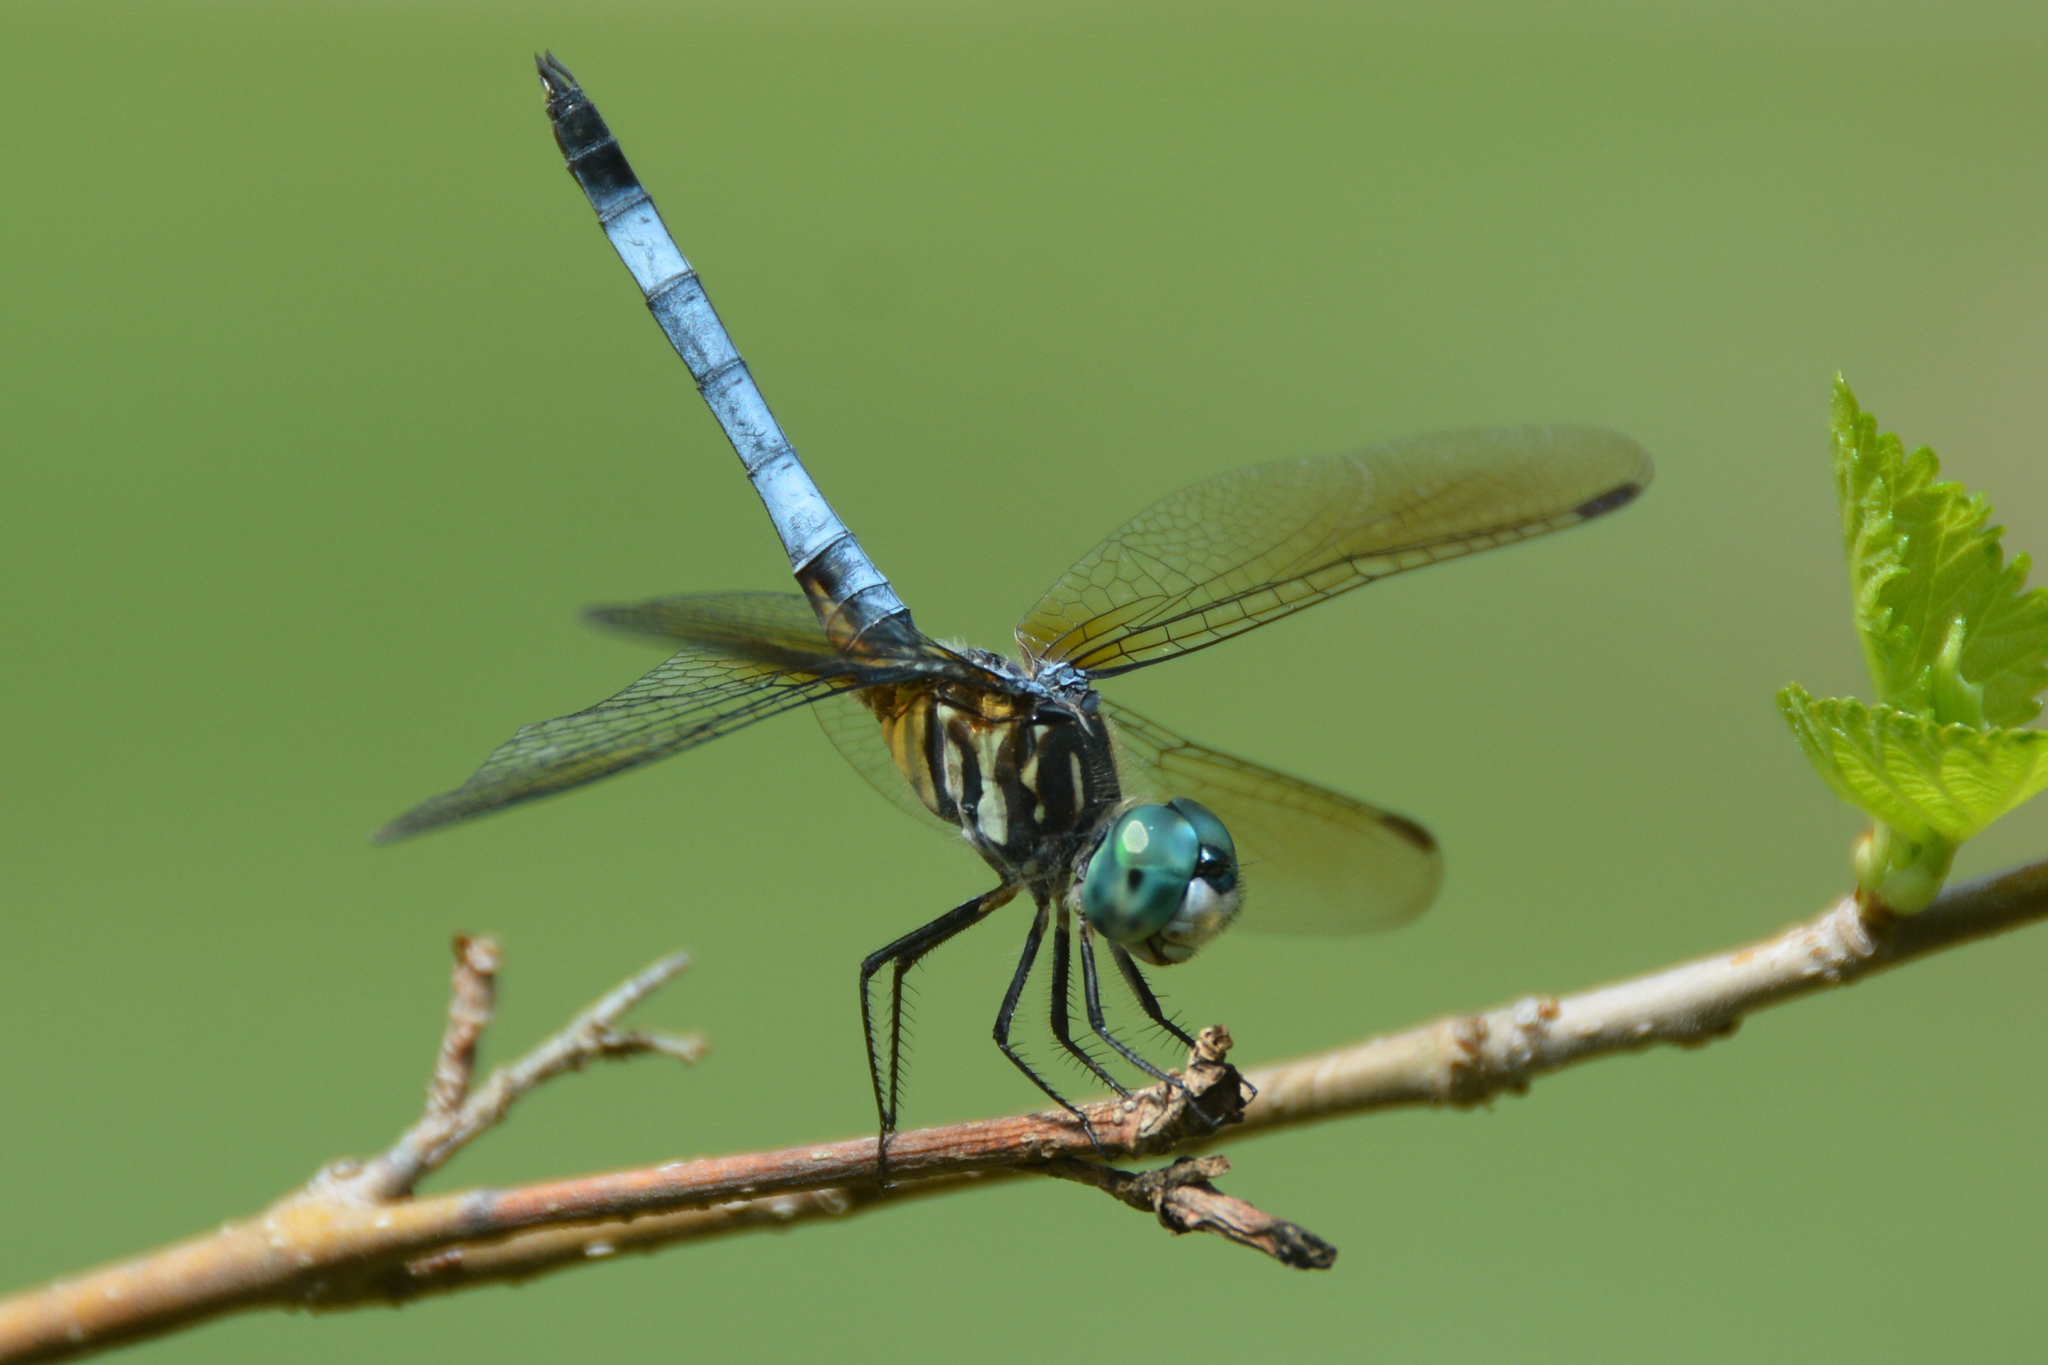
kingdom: Animalia
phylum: Arthropoda
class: Insecta
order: Odonata
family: Libellulidae
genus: Pachydiplax
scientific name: Pachydiplax longipennis
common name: Blue dasher
